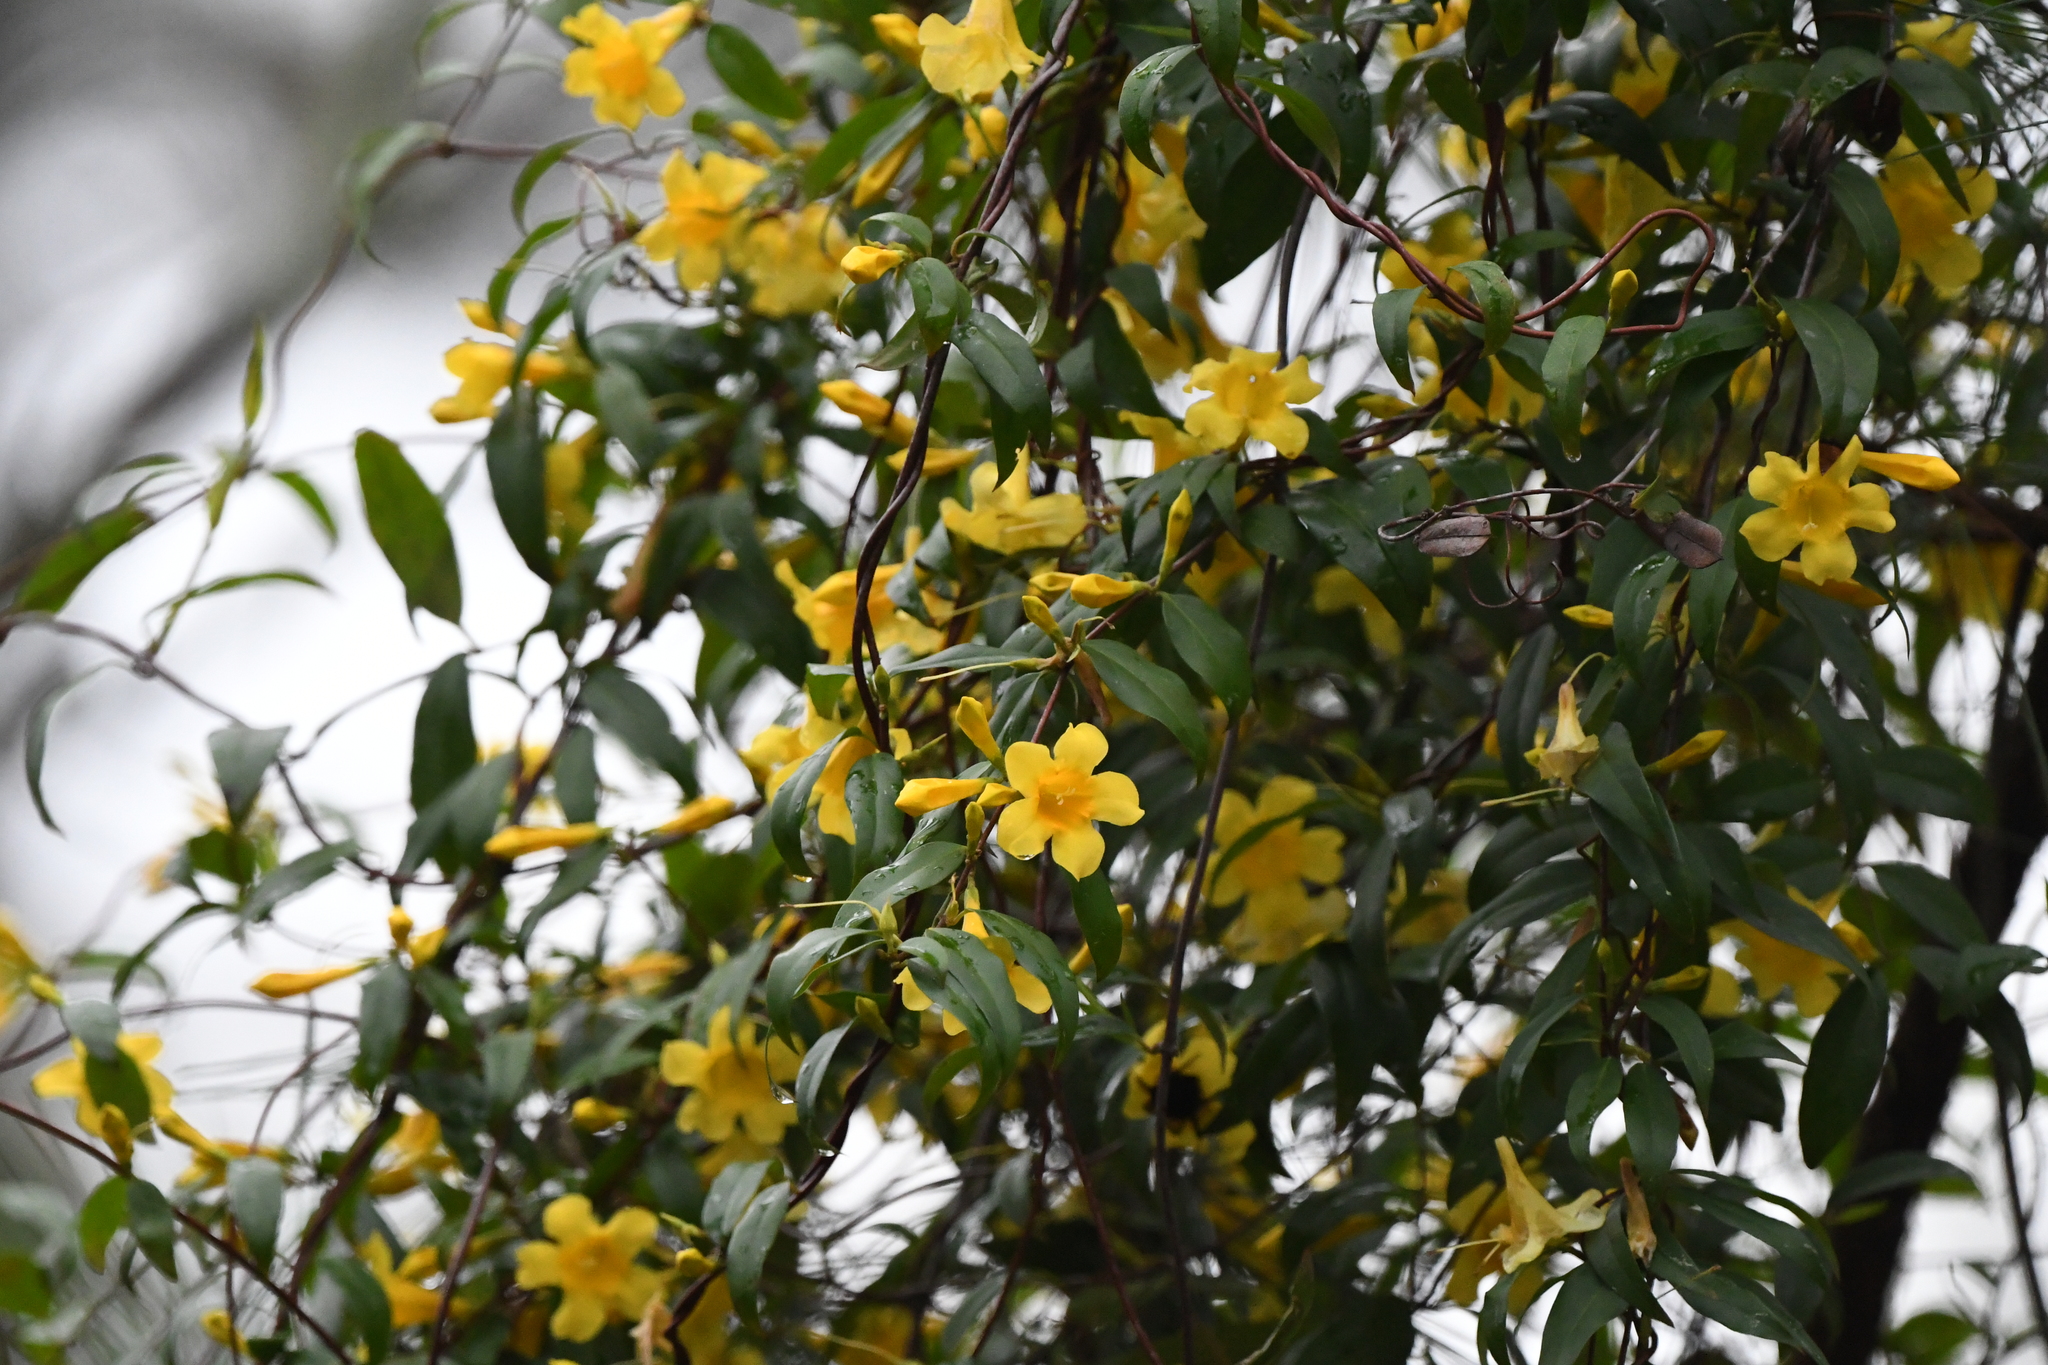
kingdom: Plantae
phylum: Tracheophyta
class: Magnoliopsida
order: Gentianales
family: Gelsemiaceae
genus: Gelsemium
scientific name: Gelsemium sempervirens
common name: Carolina-jasmine
